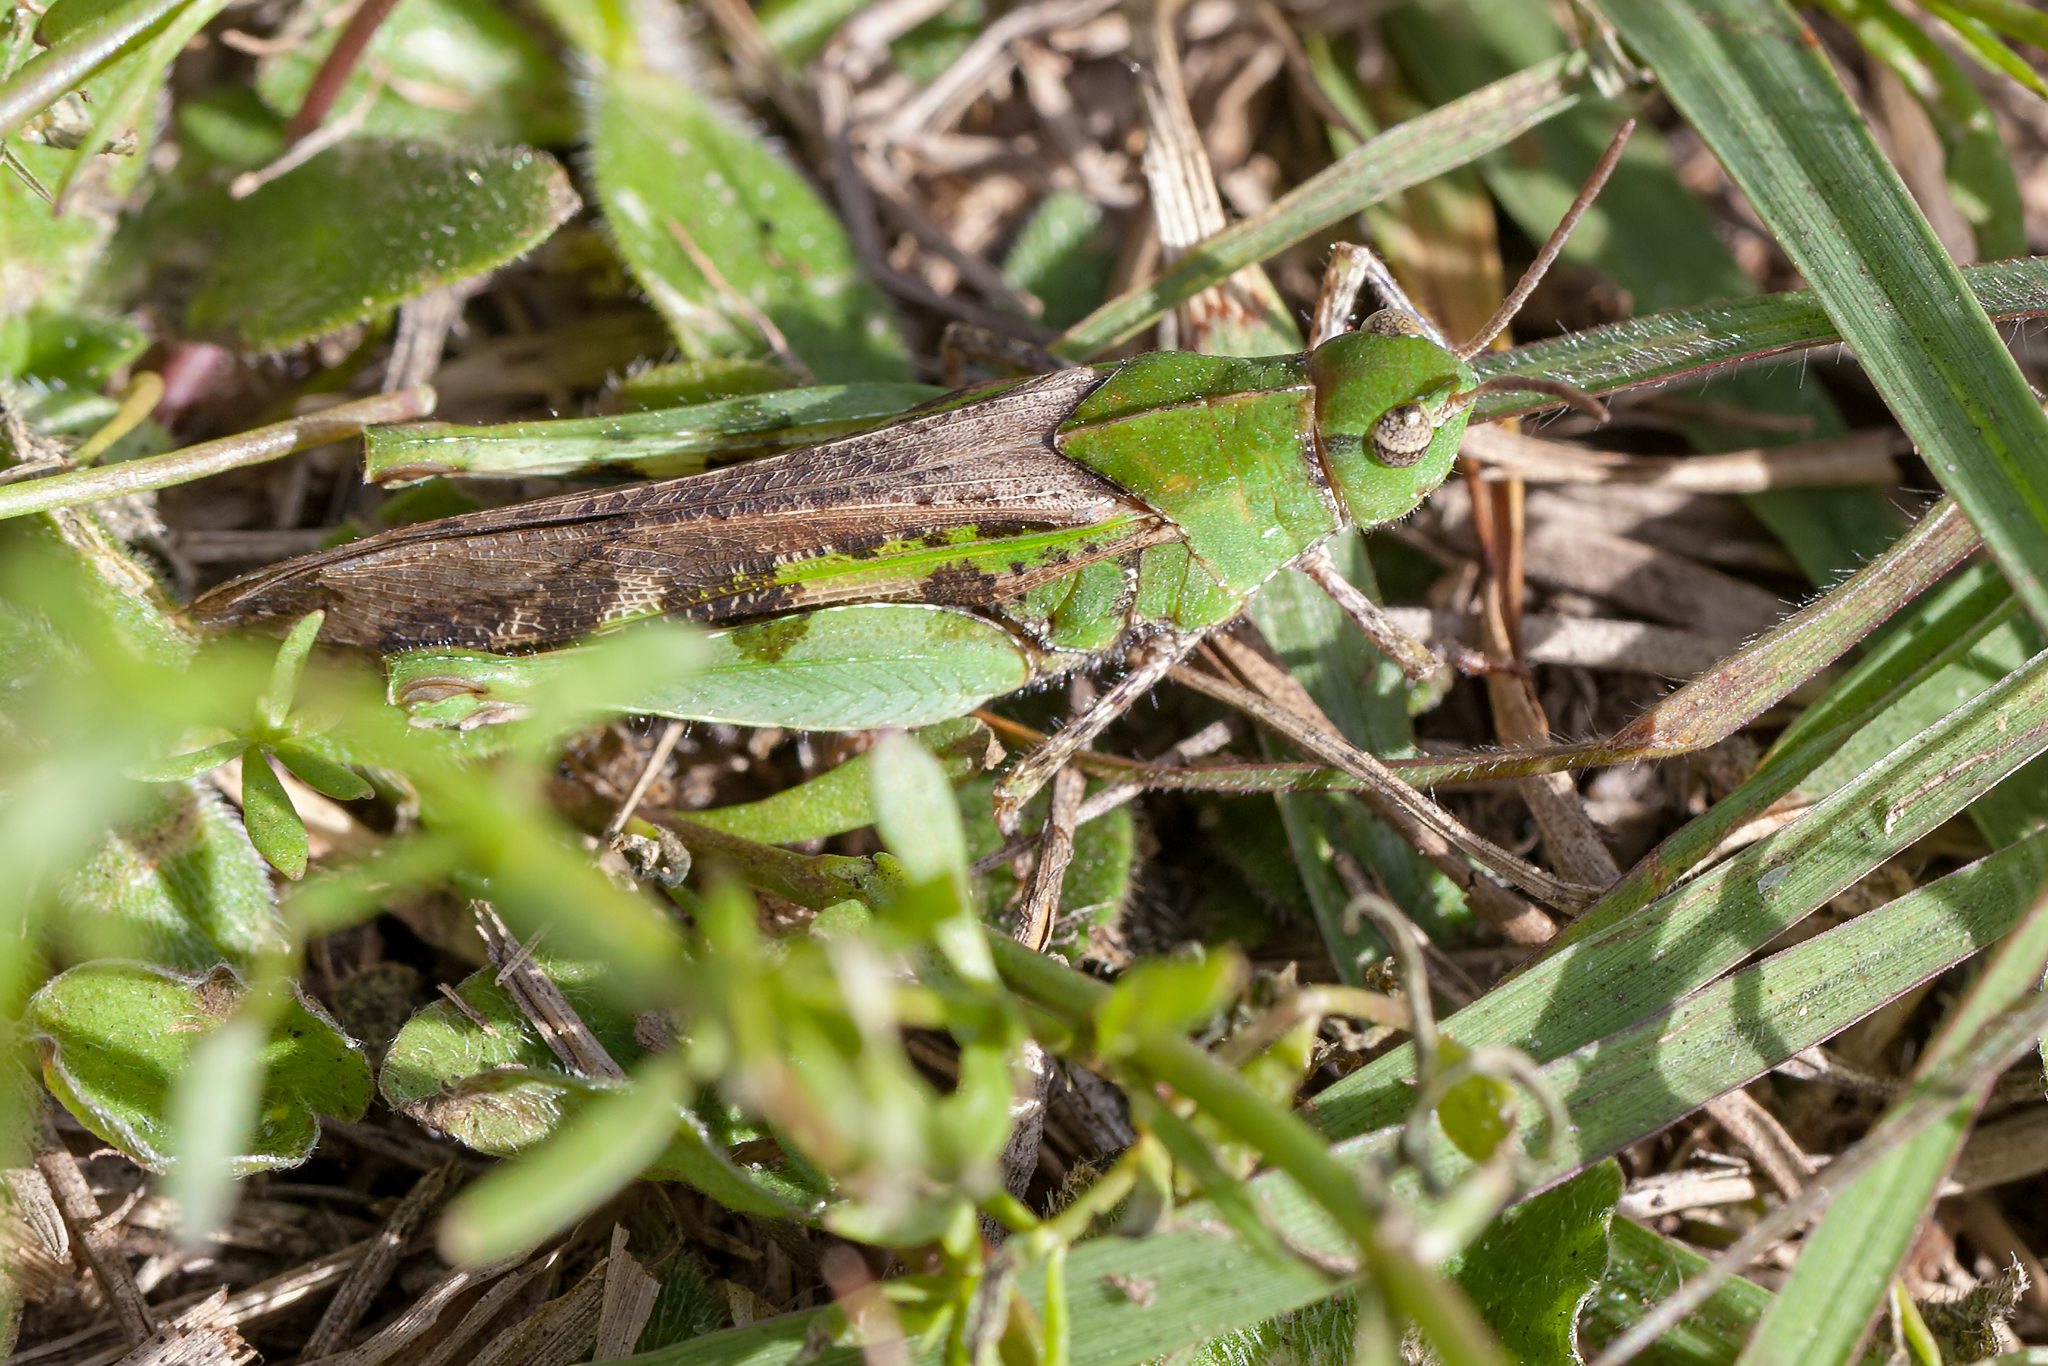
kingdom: Animalia
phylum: Arthropoda
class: Insecta
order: Orthoptera
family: Acrididae
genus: Chortophaga
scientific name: Chortophaga australior
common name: Southern green-striped grasshopper
